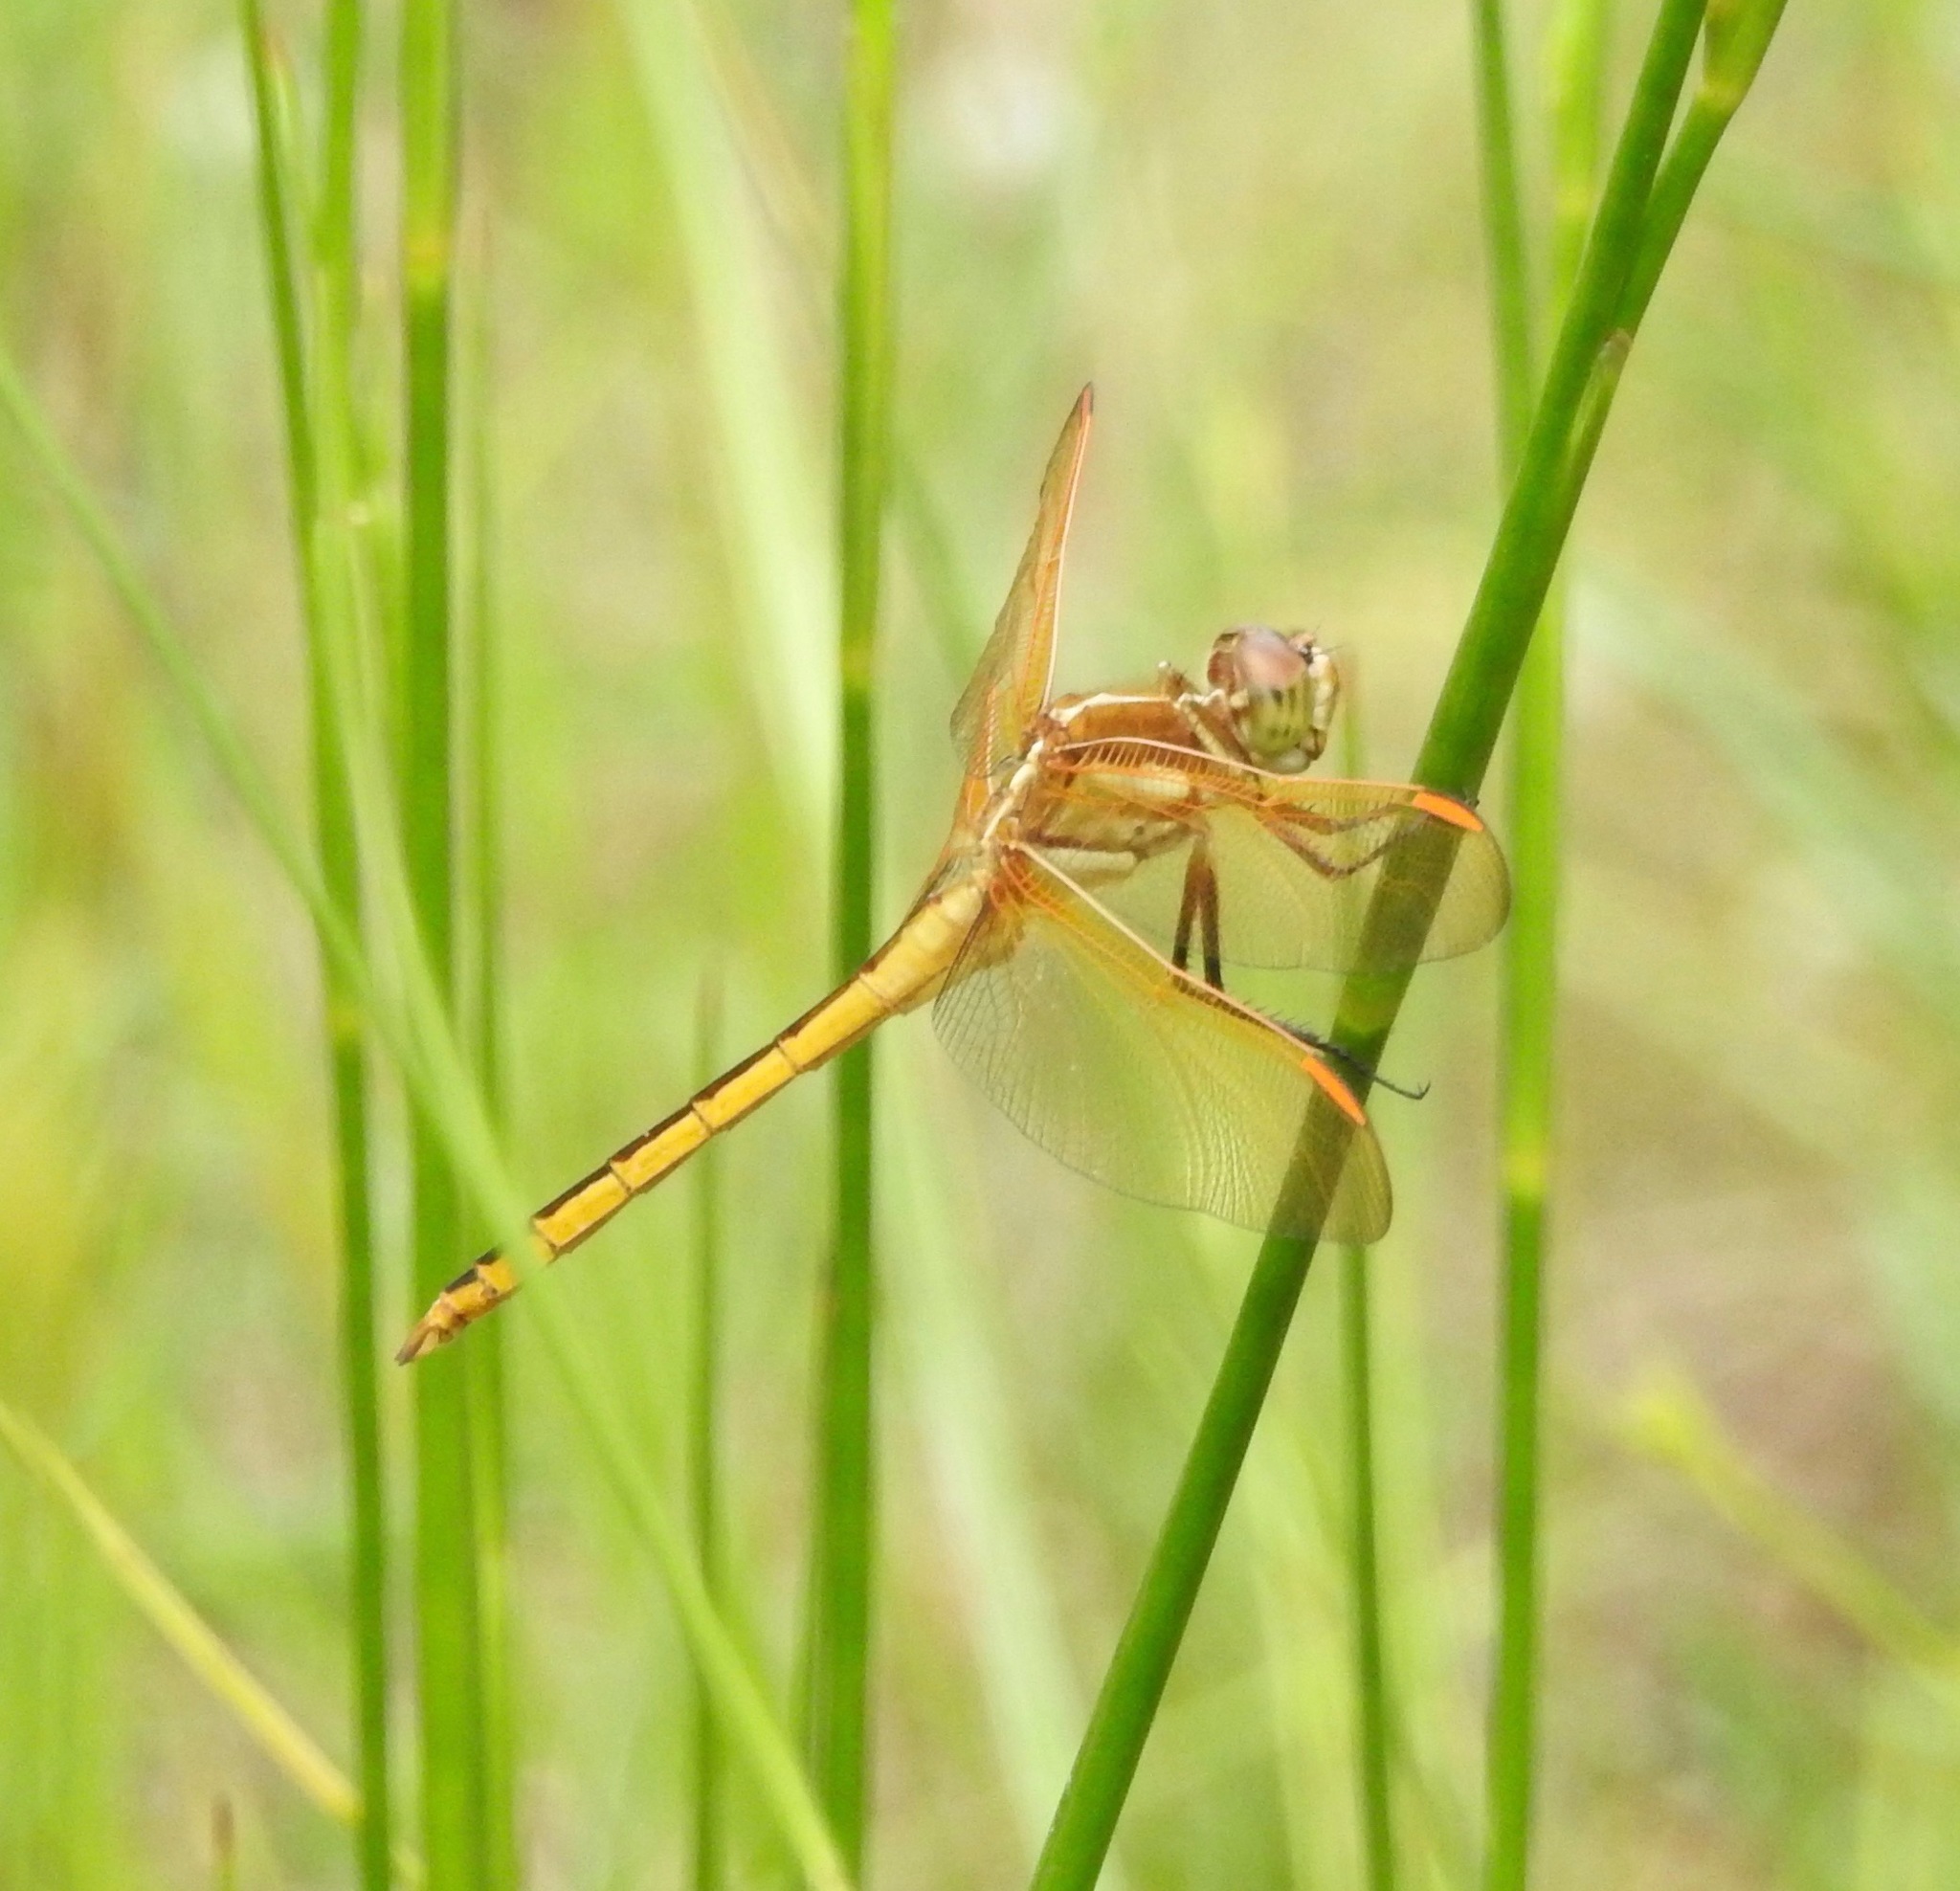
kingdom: Animalia
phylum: Arthropoda
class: Insecta
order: Odonata
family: Libellulidae
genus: Libellula
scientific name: Libellula auripennis
